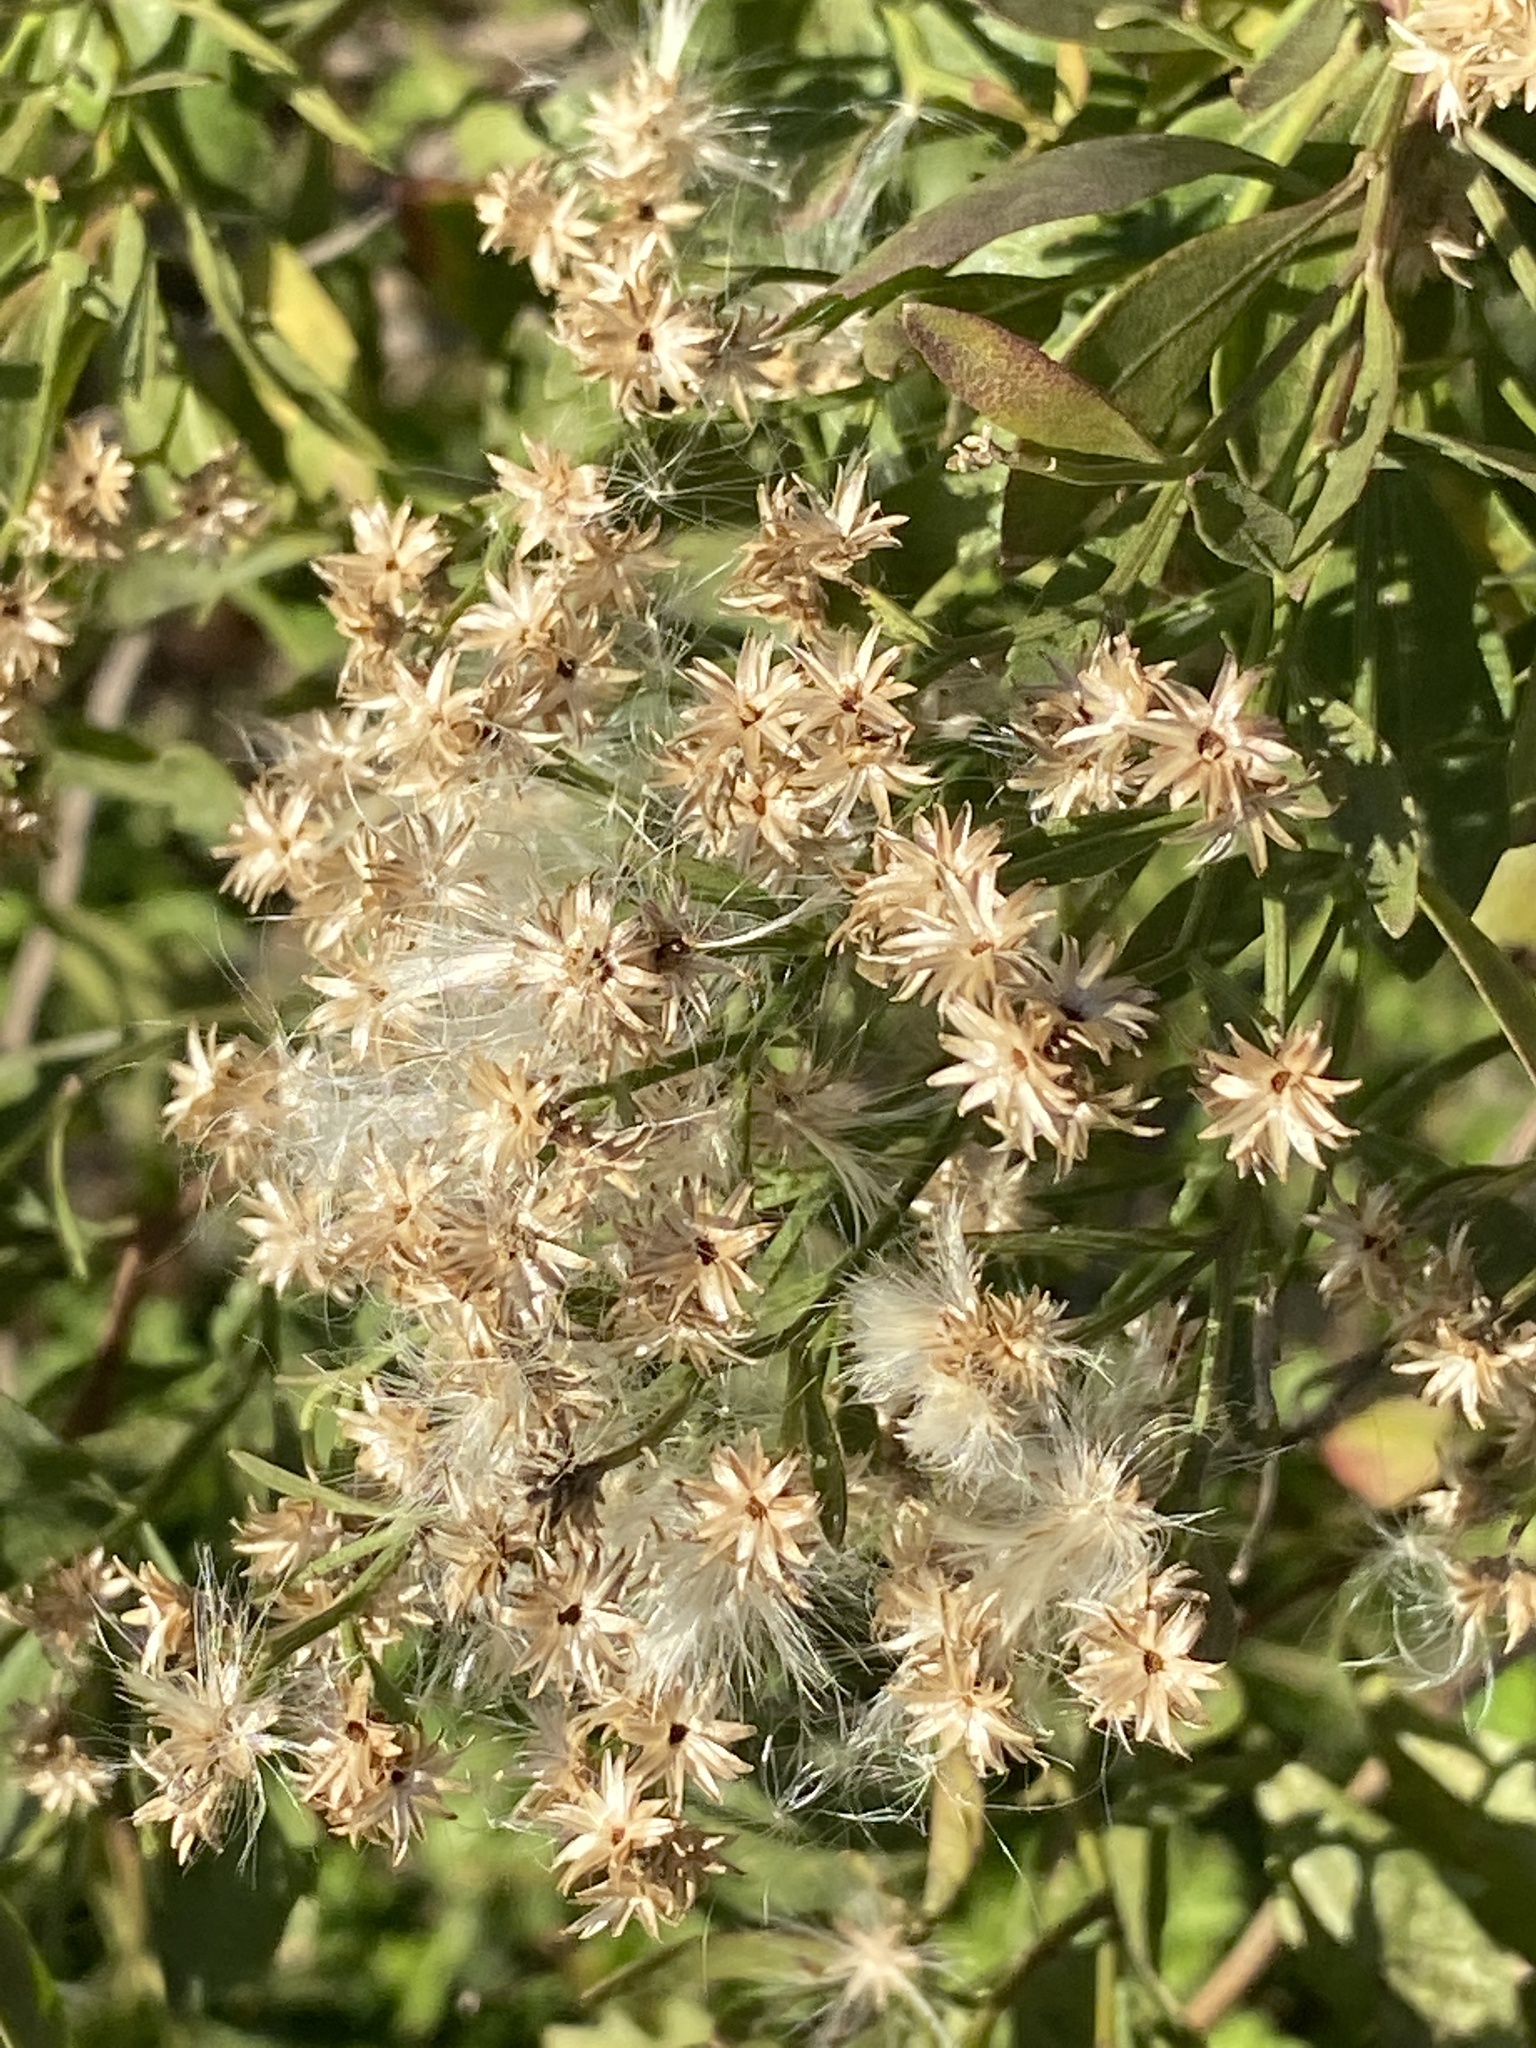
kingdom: Plantae
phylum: Tracheophyta
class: Magnoliopsida
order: Asterales
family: Asteraceae
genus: Baccharis
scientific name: Baccharis halimifolia
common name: Eastern baccharis
